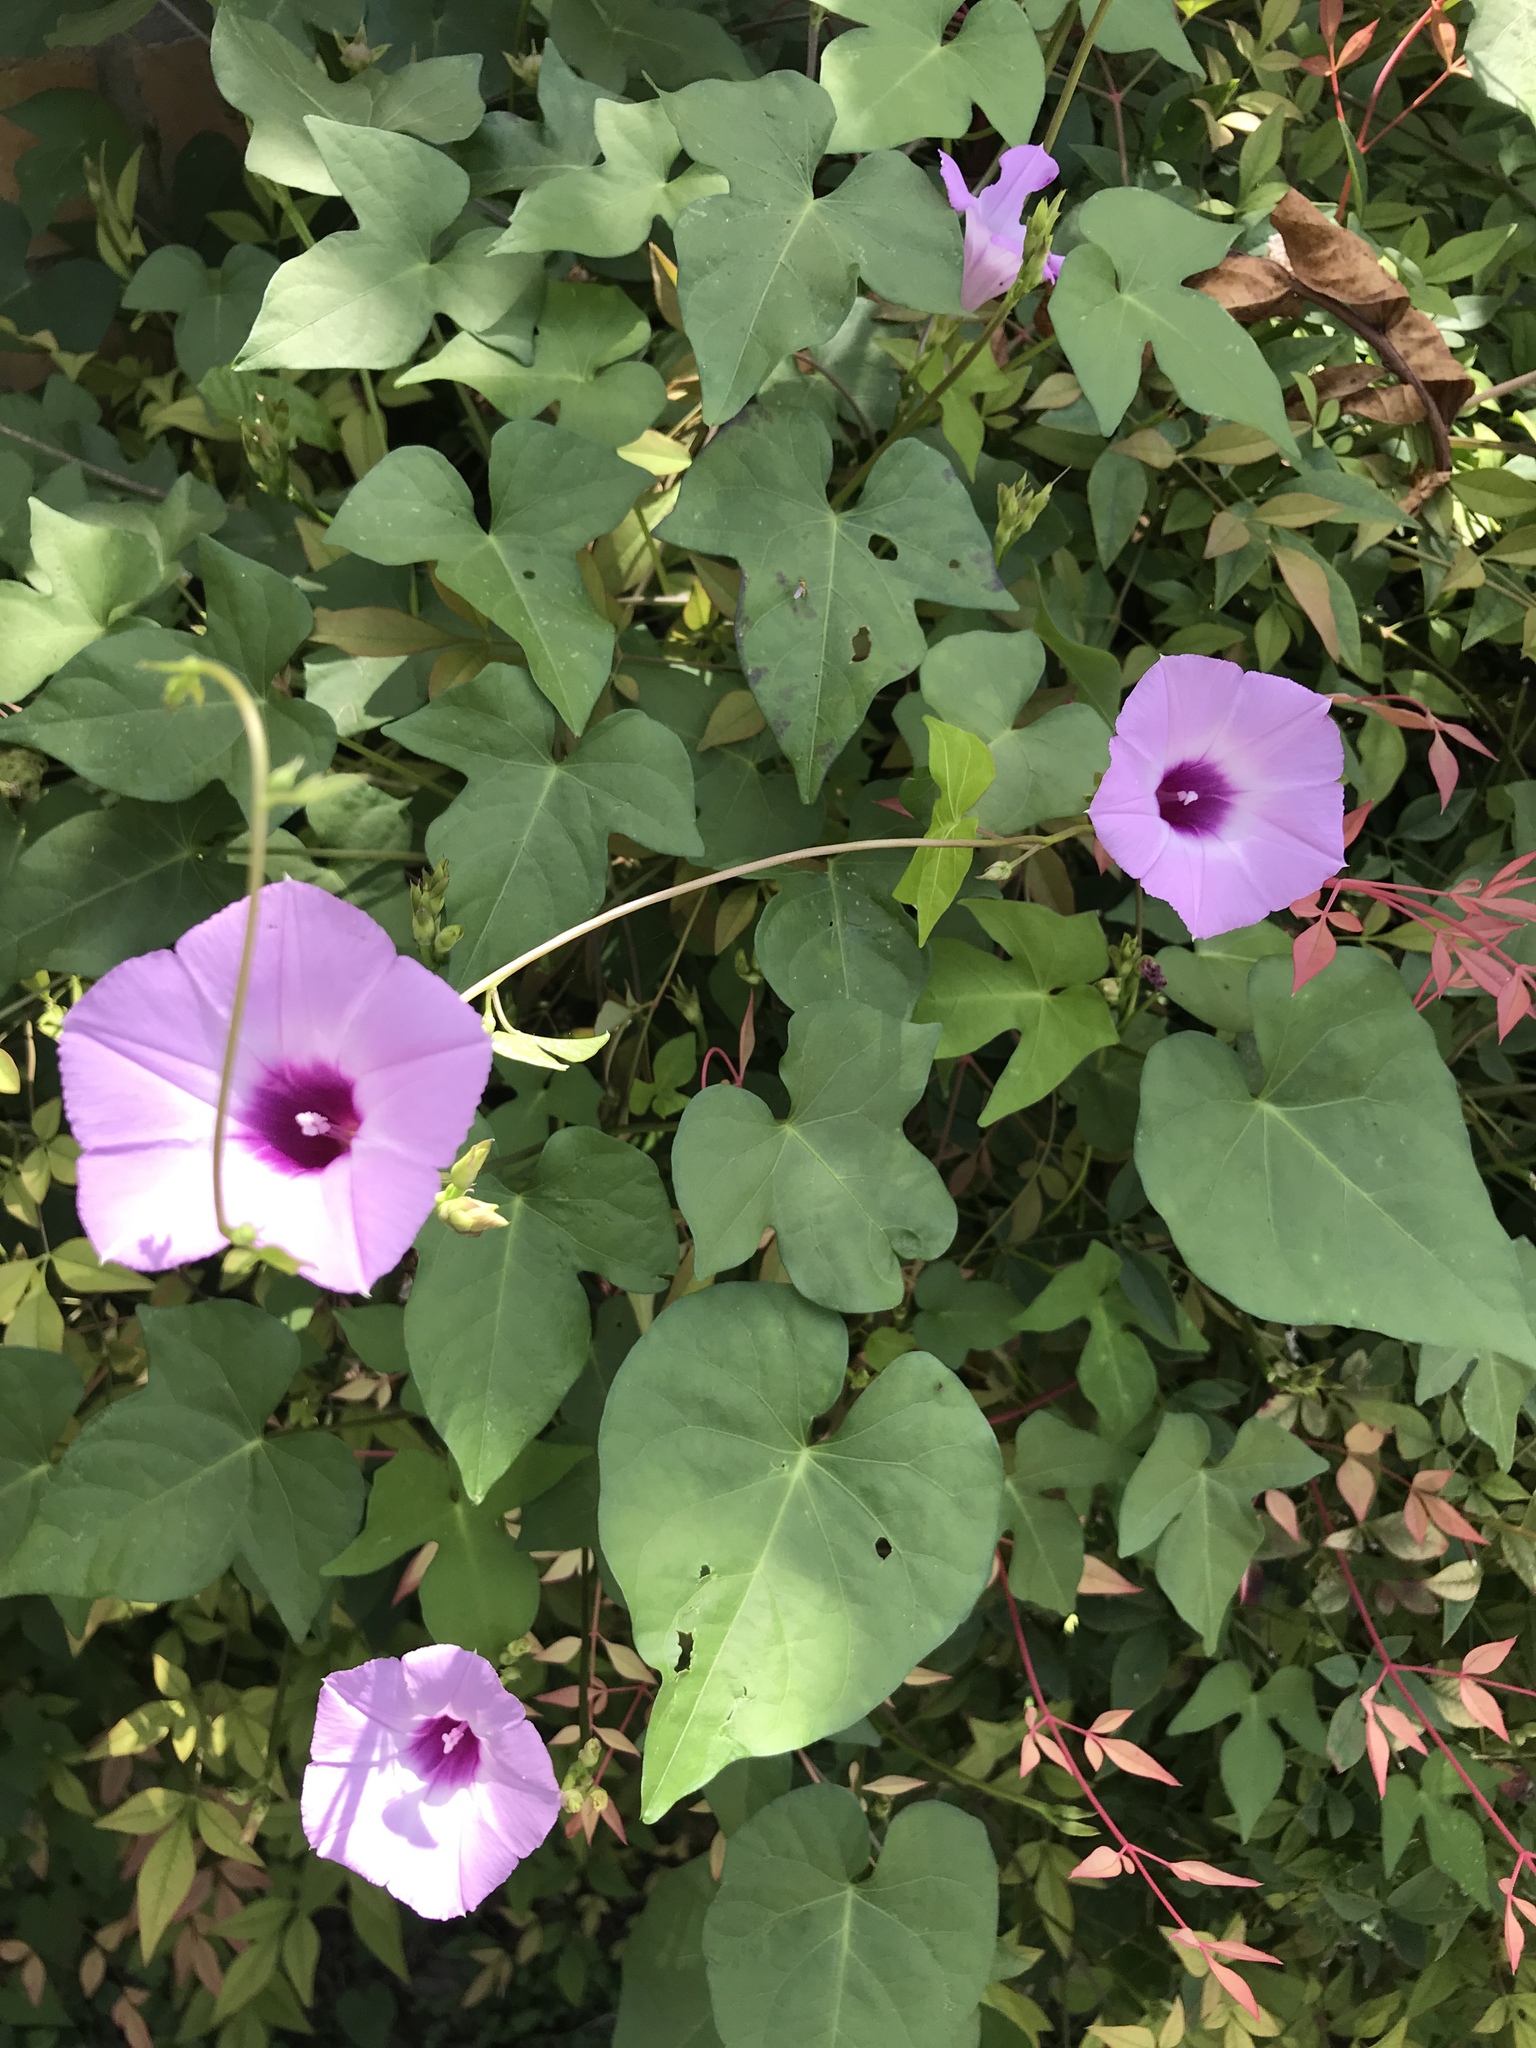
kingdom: Plantae
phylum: Tracheophyta
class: Magnoliopsida
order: Solanales
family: Convolvulaceae
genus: Ipomoea
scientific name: Ipomoea cordatotriloba
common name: Cotton morning glory
